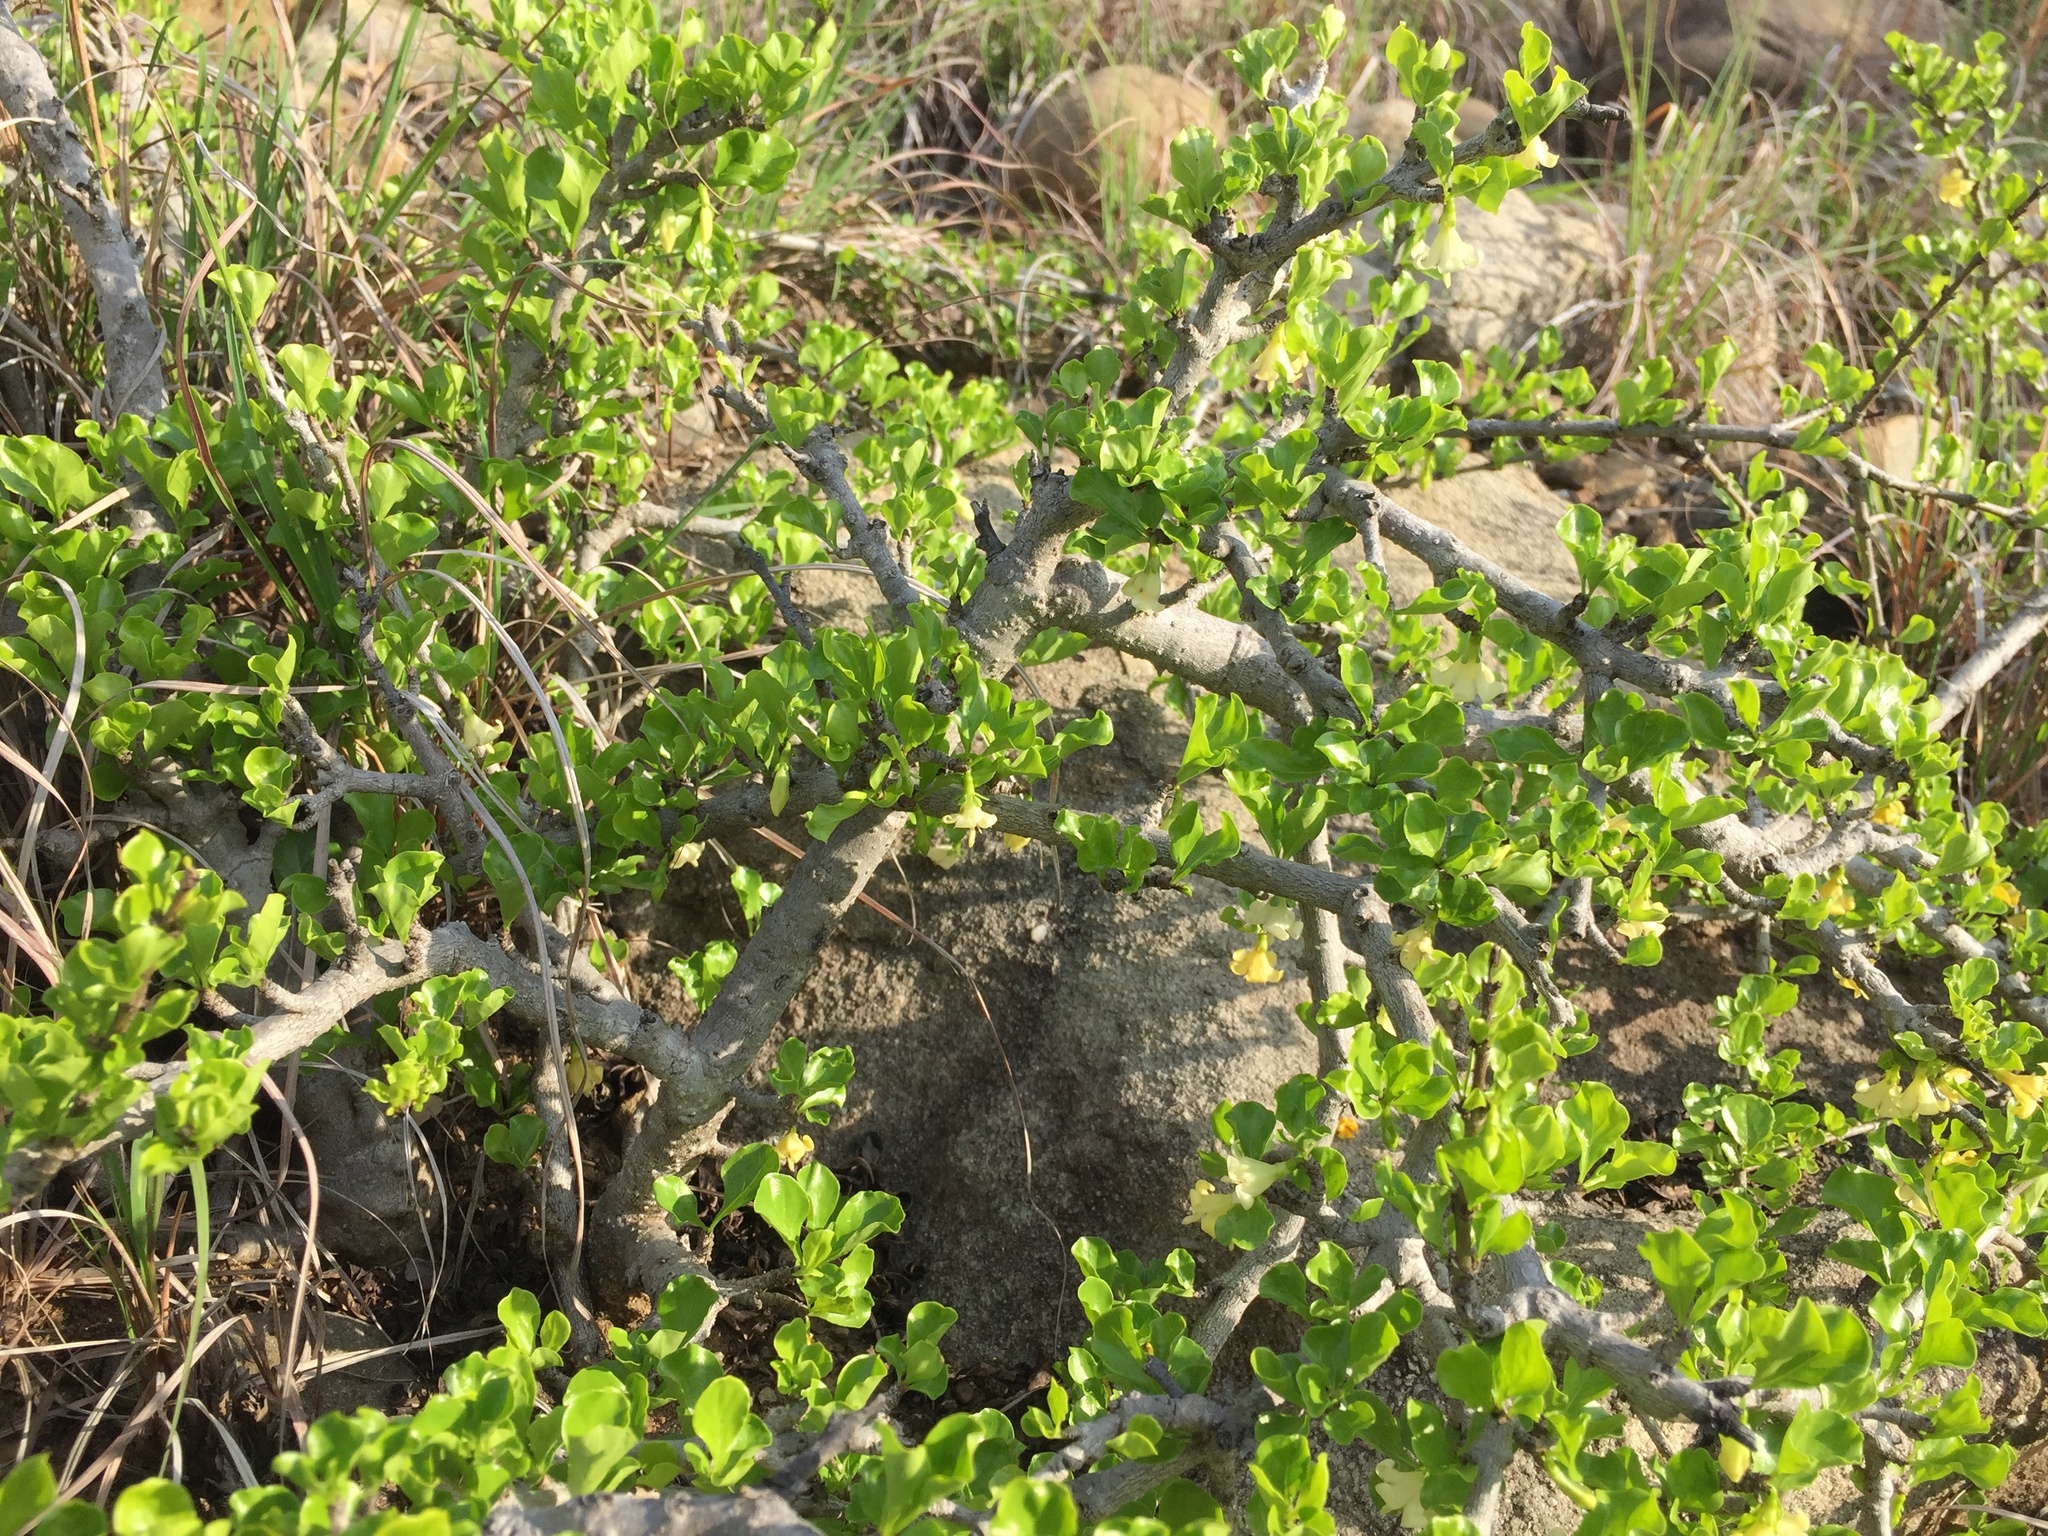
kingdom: Plantae
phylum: Tracheophyta
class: Magnoliopsida
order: Gentianales
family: Rubiaceae
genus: Coddia
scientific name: Coddia rudis
